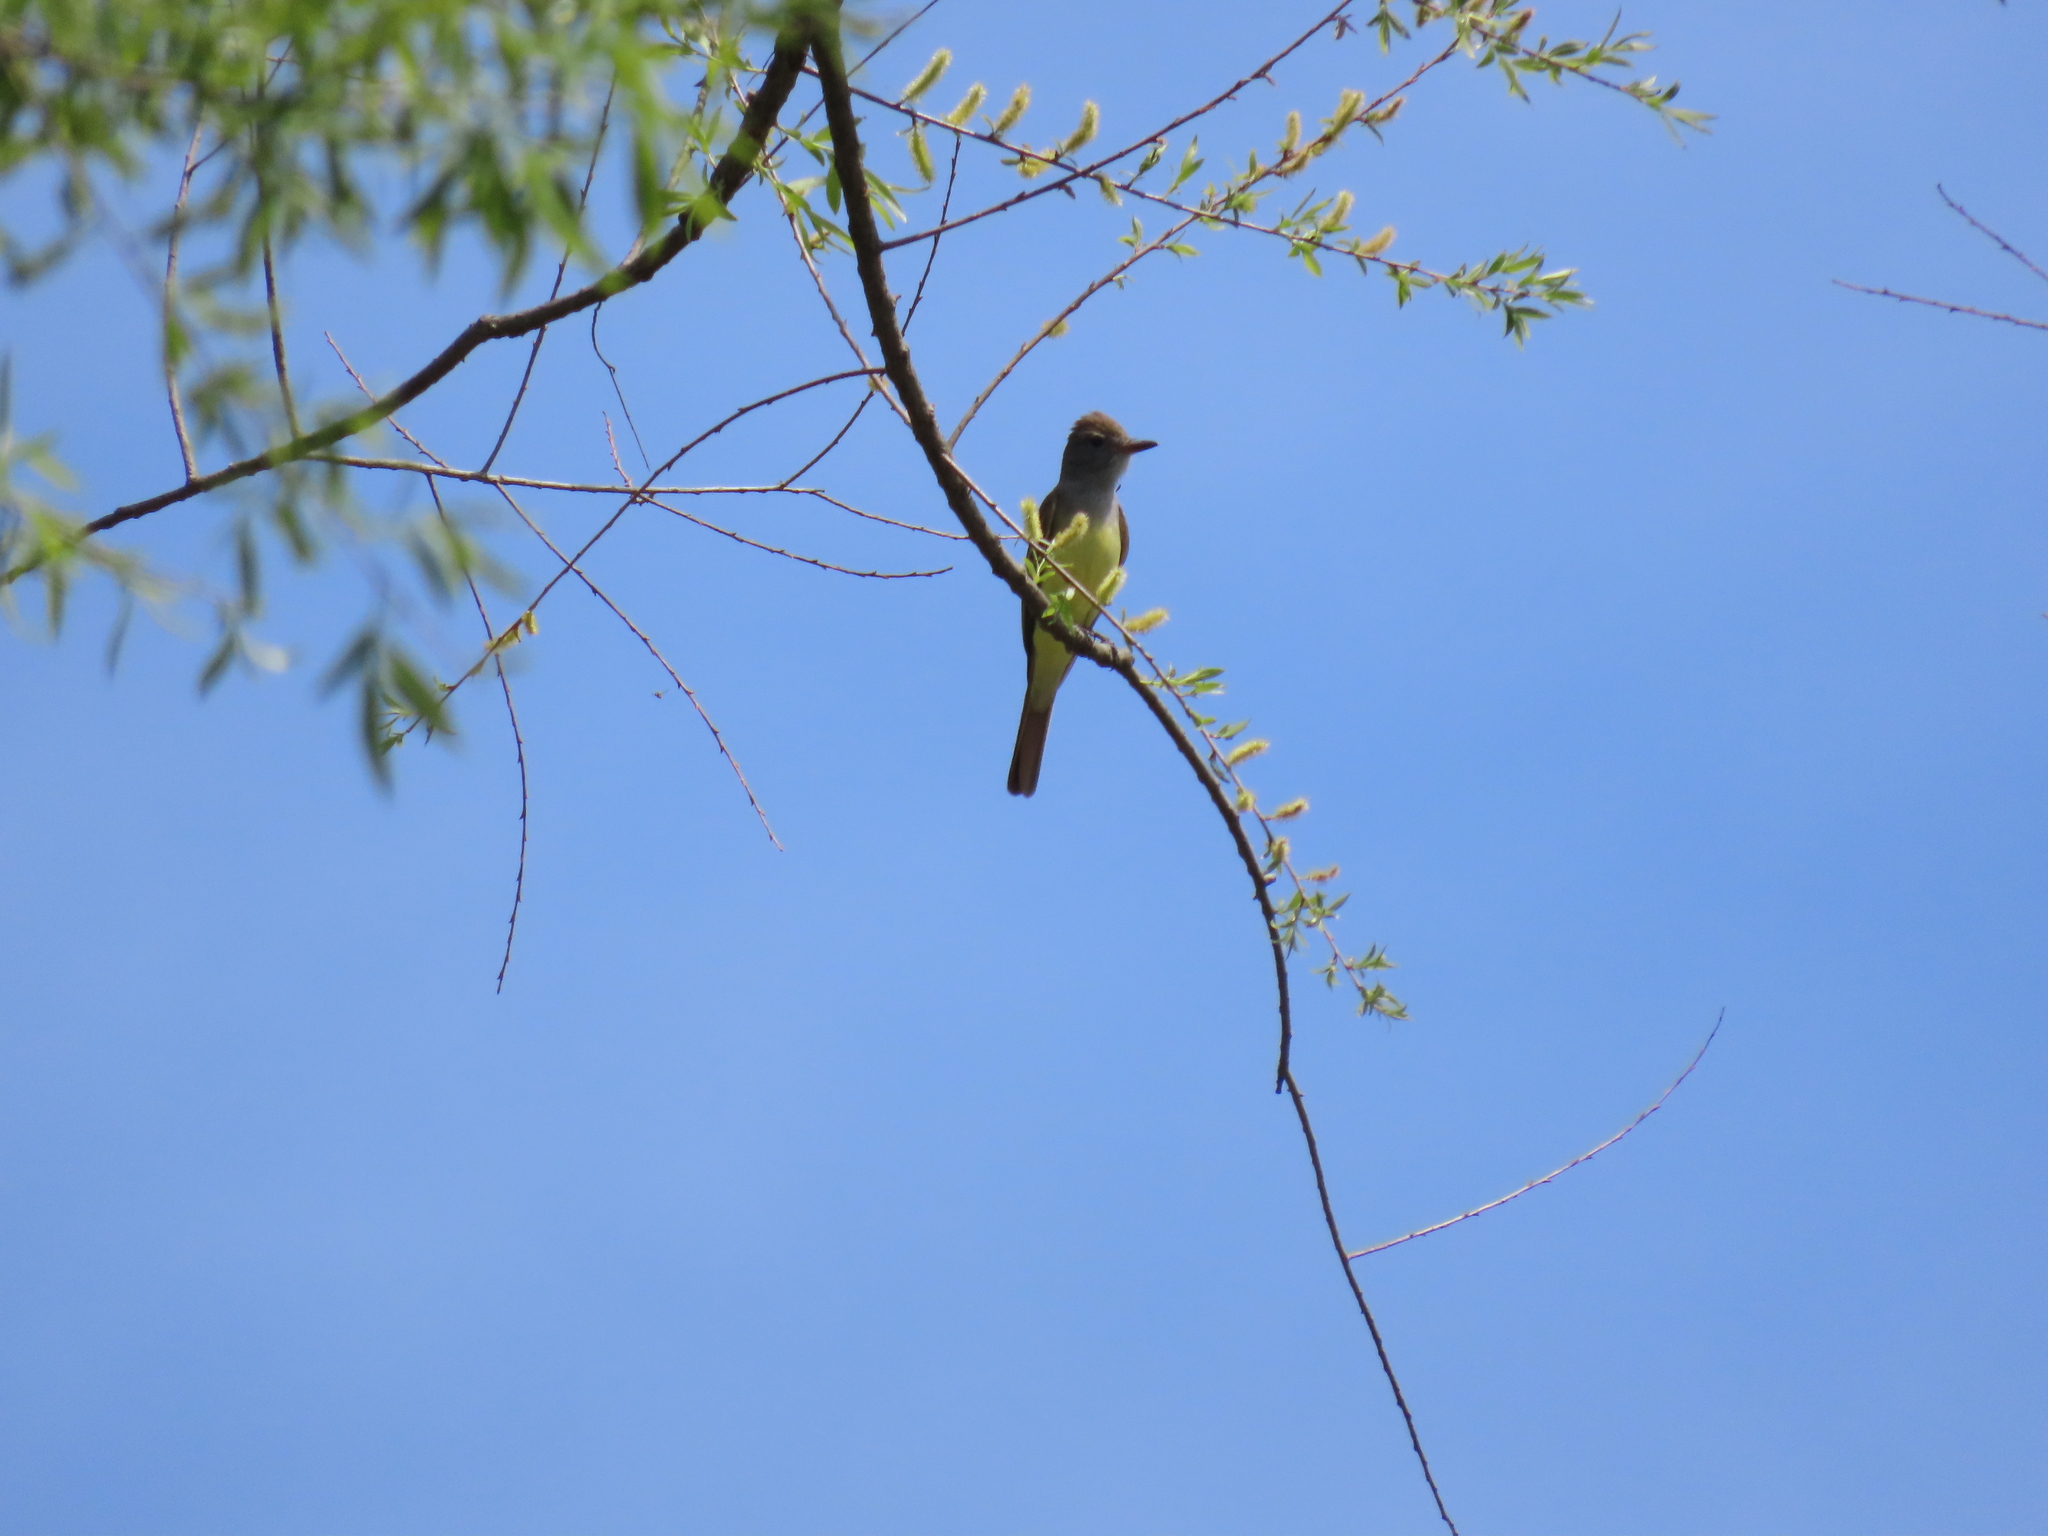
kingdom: Animalia
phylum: Chordata
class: Aves
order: Passeriformes
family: Tyrannidae
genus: Myiarchus
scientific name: Myiarchus crinitus
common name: Great crested flycatcher
